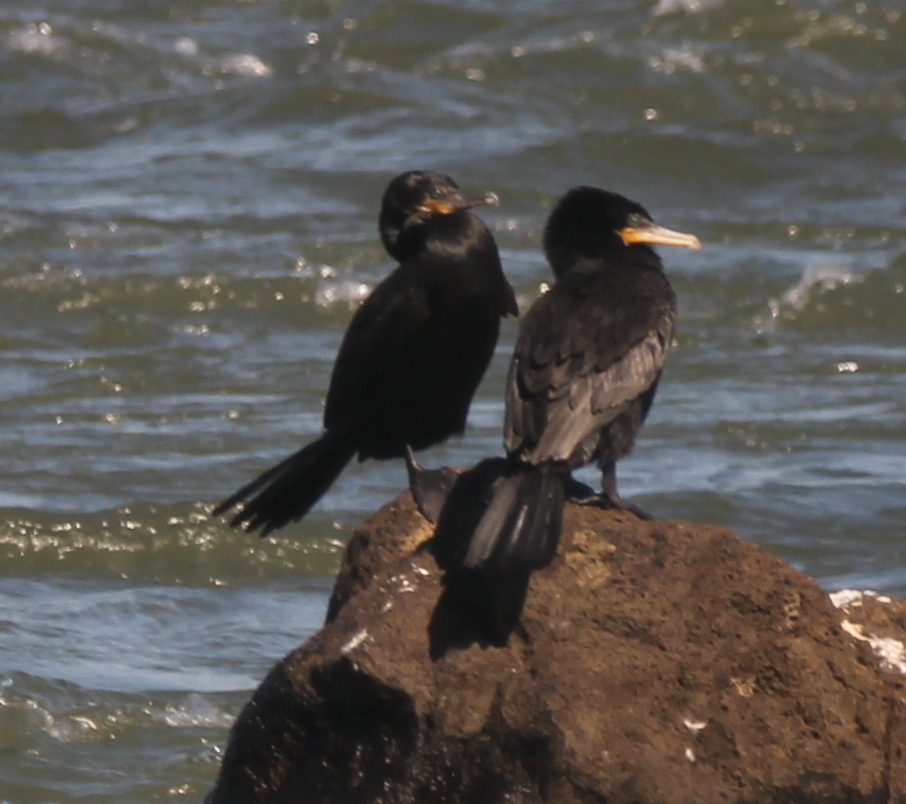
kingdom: Animalia
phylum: Chordata
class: Aves
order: Suliformes
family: Phalacrocoracidae
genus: Phalacrocorax
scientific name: Phalacrocorax brasilianus
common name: Neotropic cormorant
